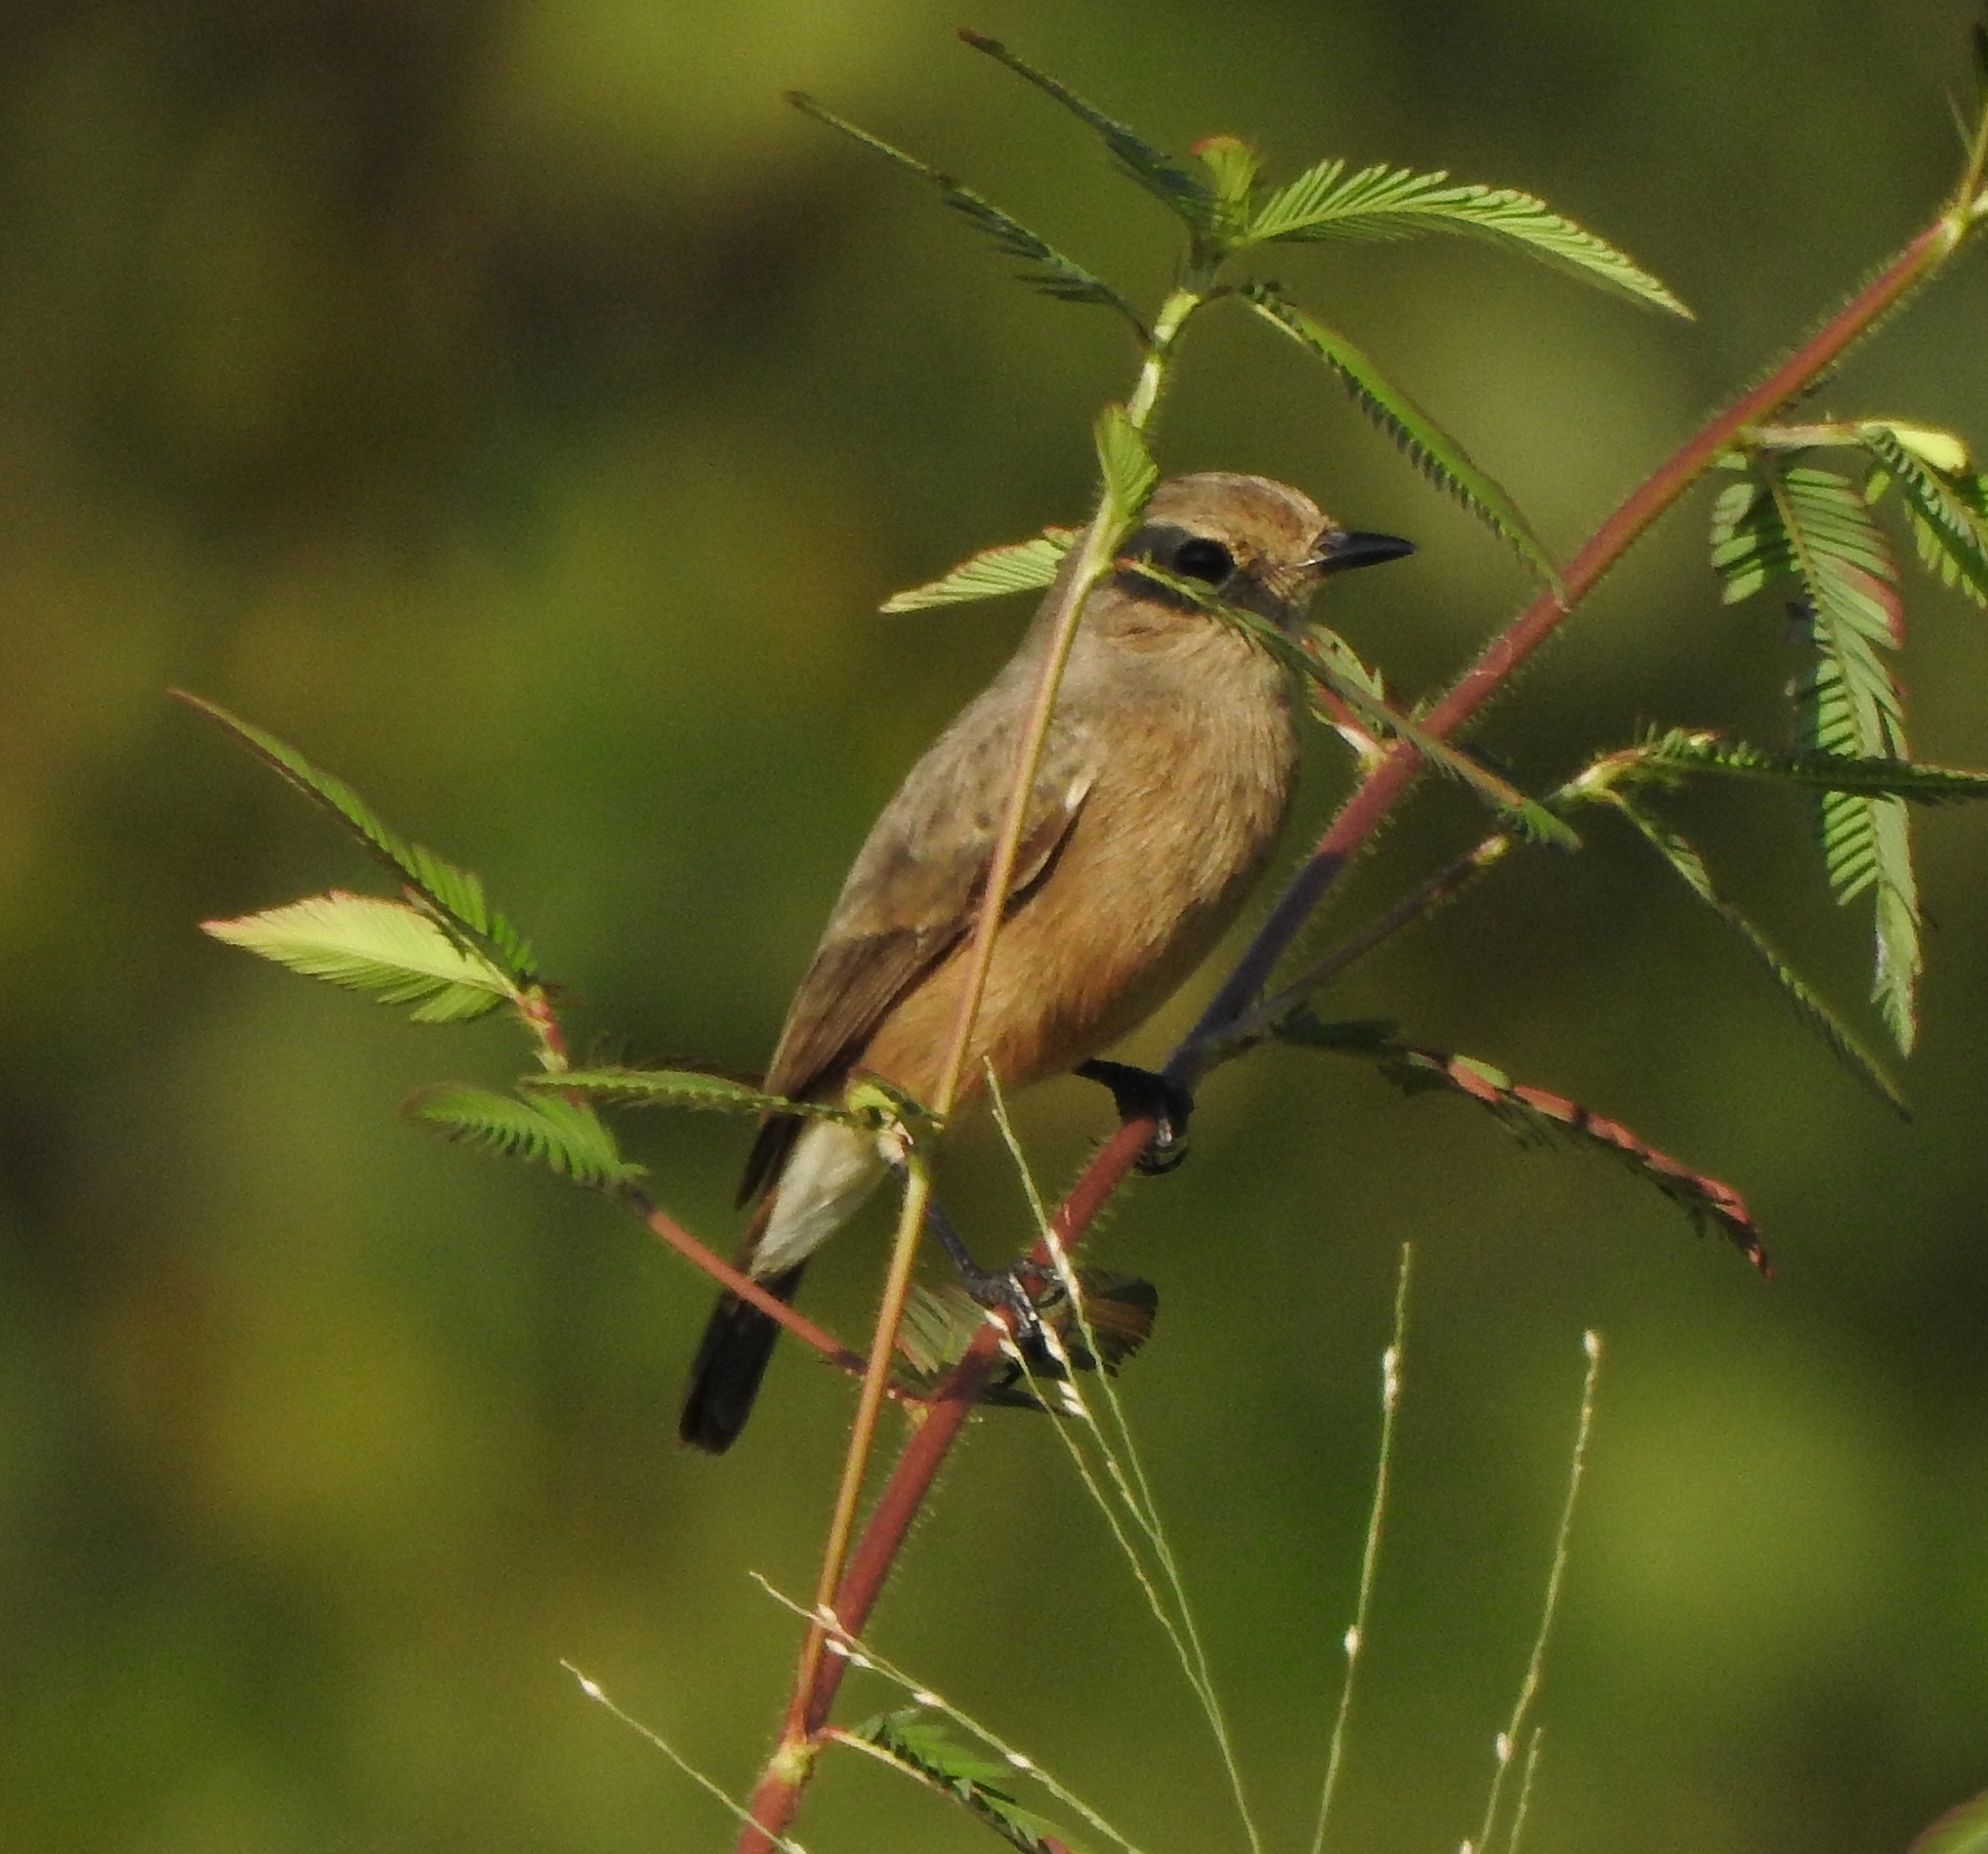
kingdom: Animalia
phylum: Chordata
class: Aves
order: Passeriformes
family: Muscicapidae
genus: Saxicola
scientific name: Saxicola caprata
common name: Pied bush chat
